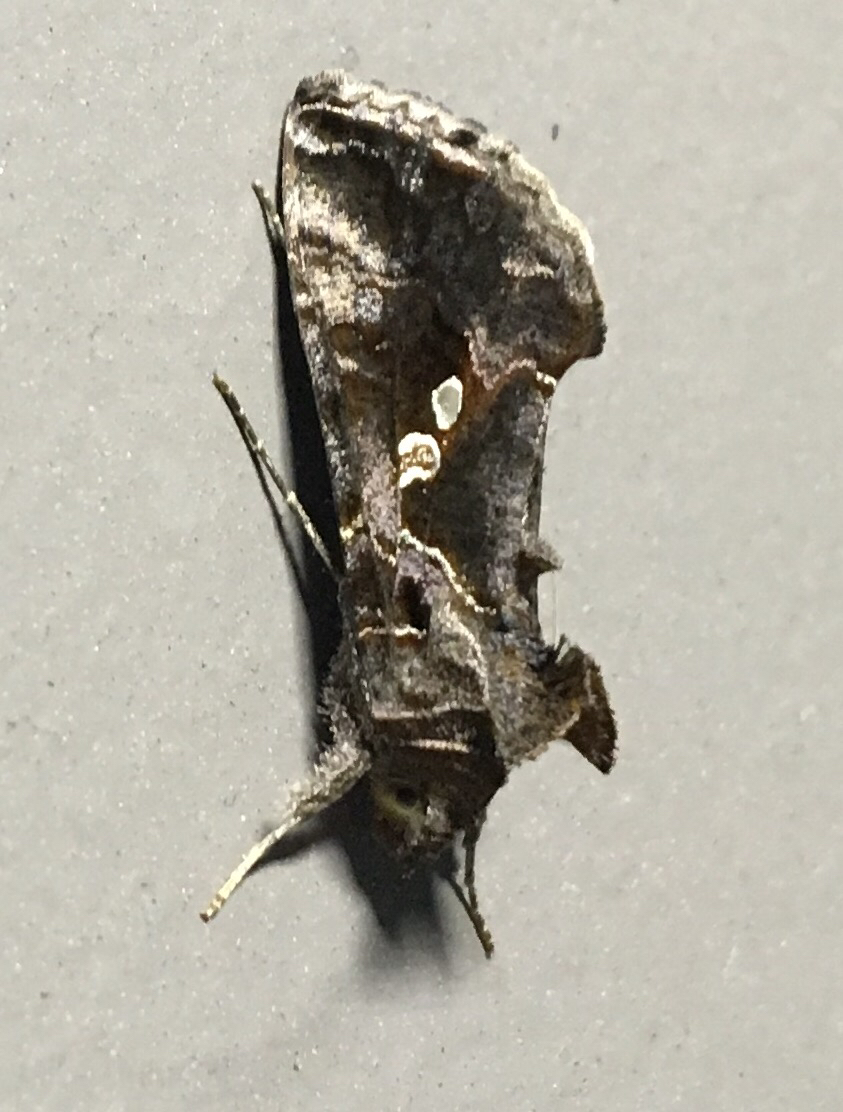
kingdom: Animalia
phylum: Arthropoda
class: Insecta
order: Lepidoptera
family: Noctuidae
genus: Chrysodeixis
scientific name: Chrysodeixis includens
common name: Cutworm moth
